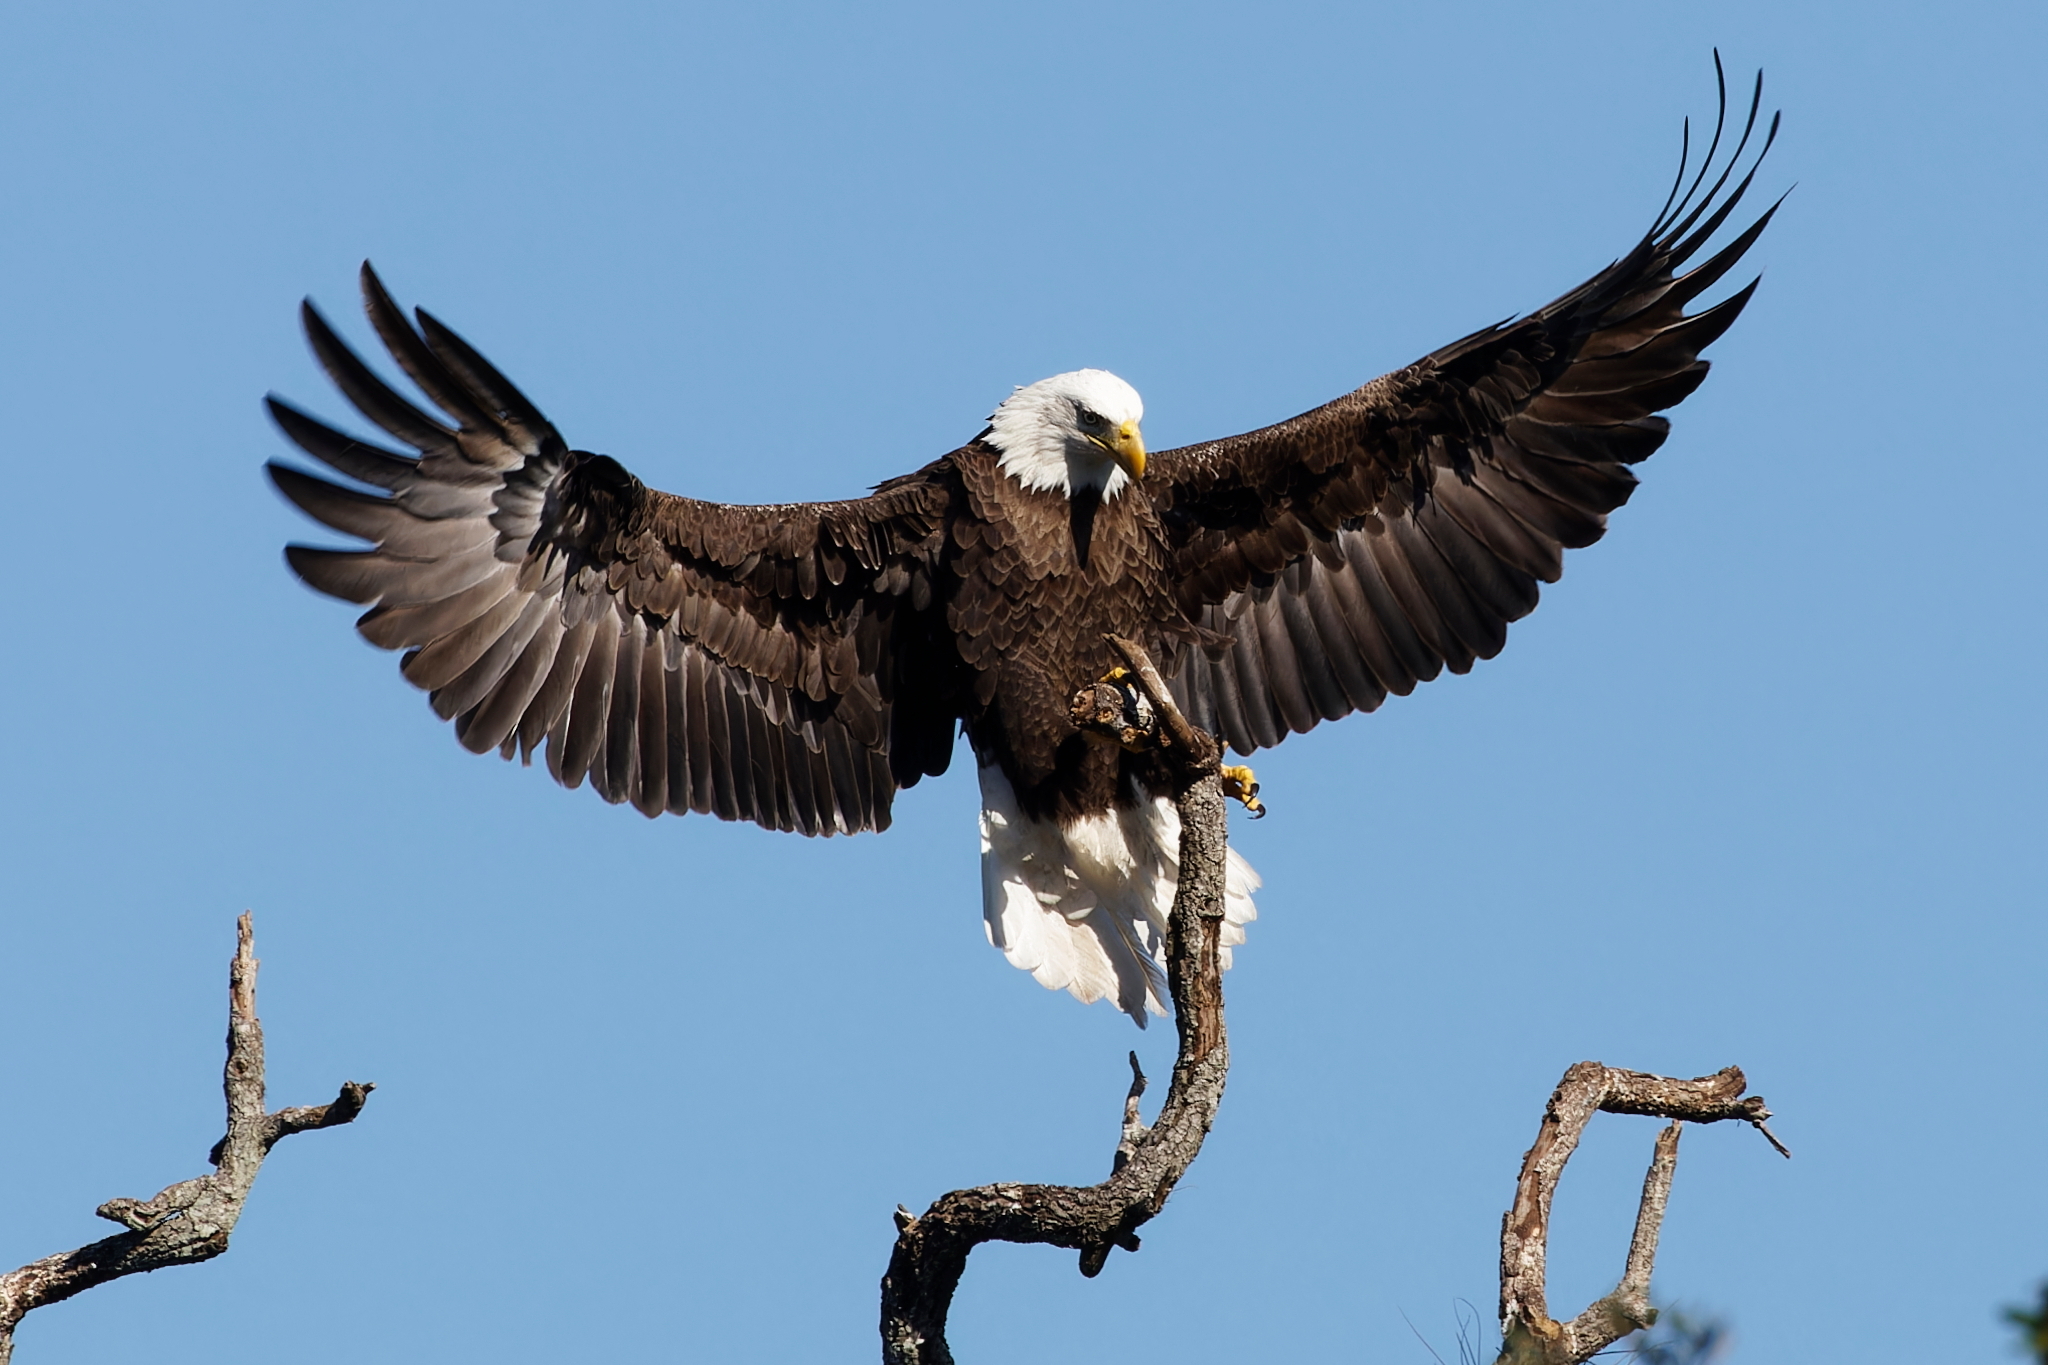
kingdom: Animalia
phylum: Chordata
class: Aves
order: Accipitriformes
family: Accipitridae
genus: Haliaeetus
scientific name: Haliaeetus leucocephalus
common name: Bald eagle
